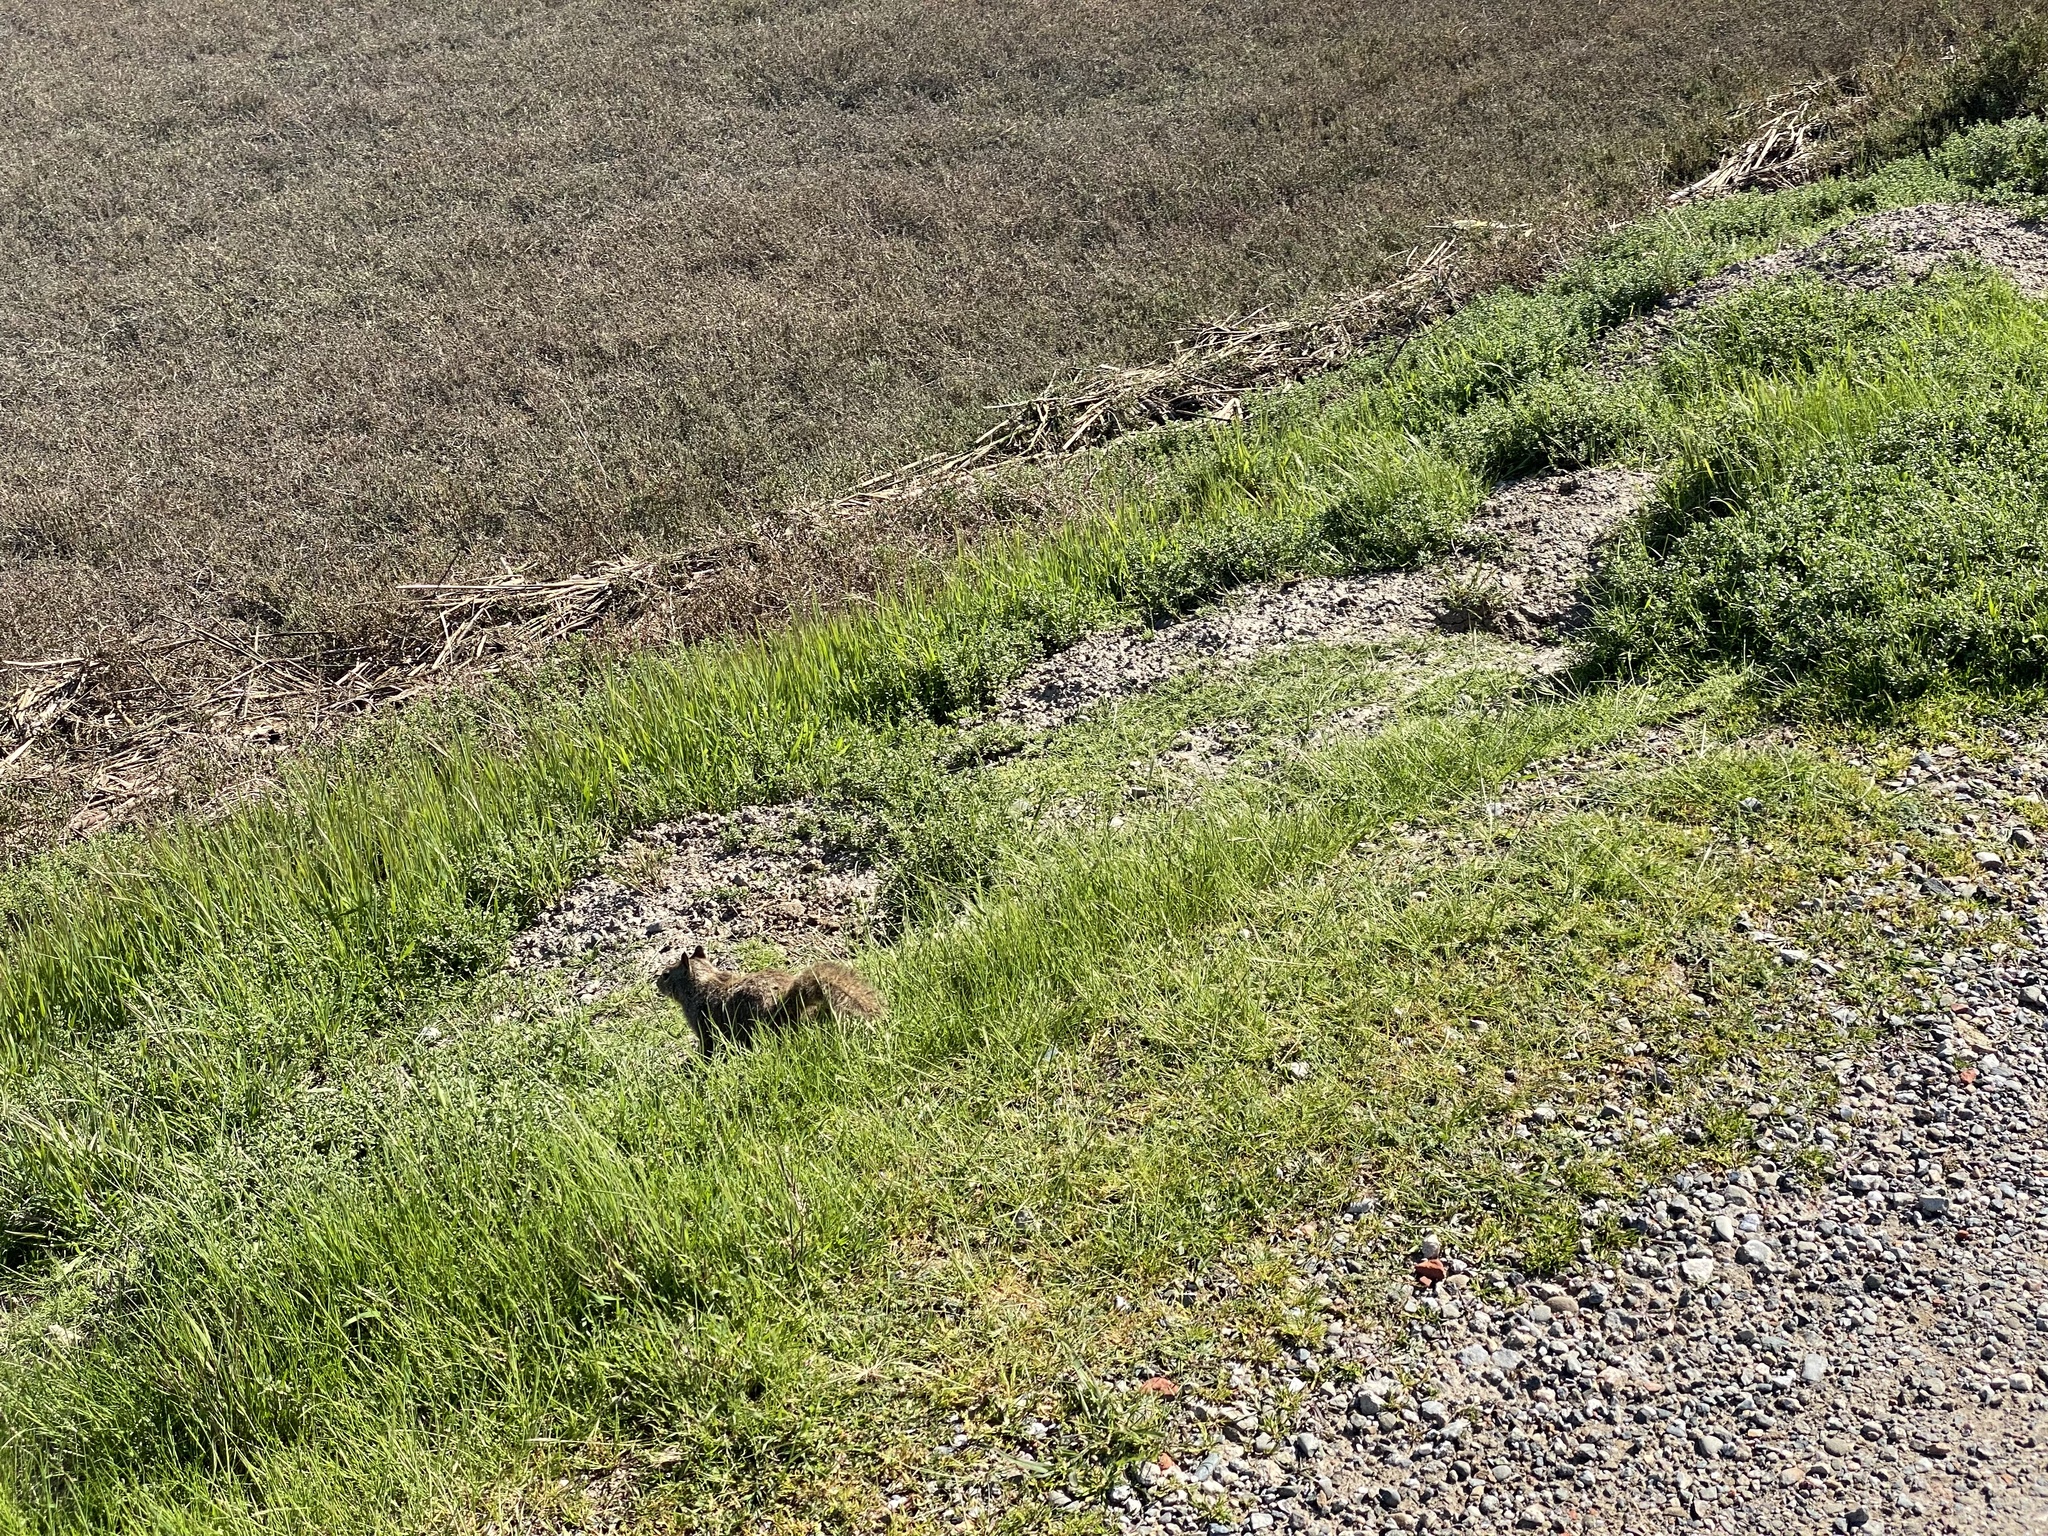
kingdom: Animalia
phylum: Chordata
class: Mammalia
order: Rodentia
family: Sciuridae
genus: Otospermophilus
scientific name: Otospermophilus beecheyi
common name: California ground squirrel
